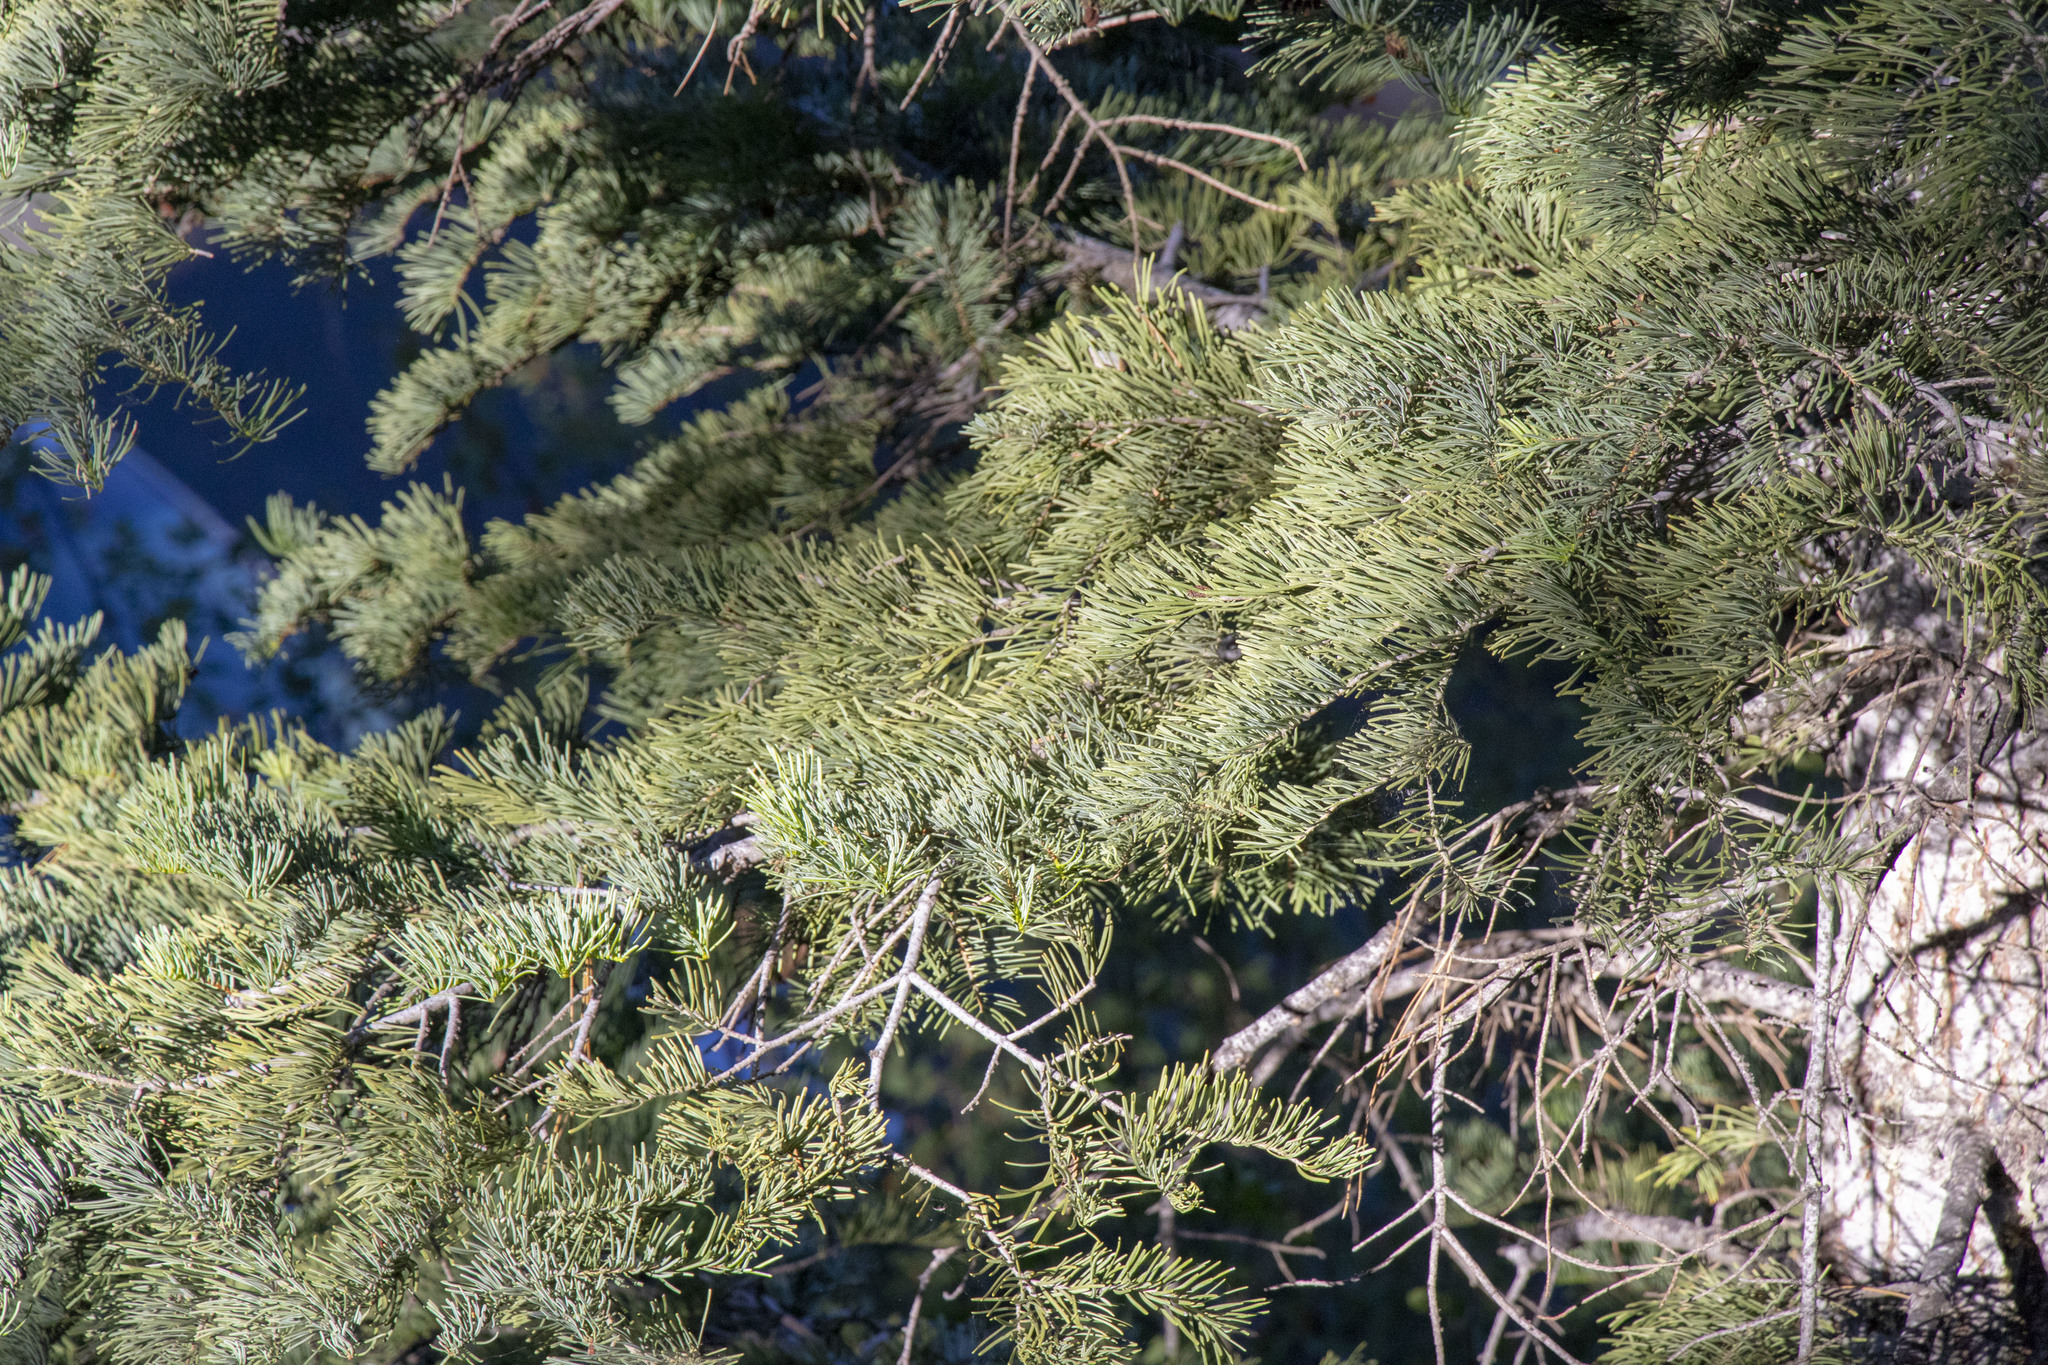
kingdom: Plantae
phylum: Tracheophyta
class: Pinopsida
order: Pinales
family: Pinaceae
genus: Abies
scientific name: Abies magnifica bis
